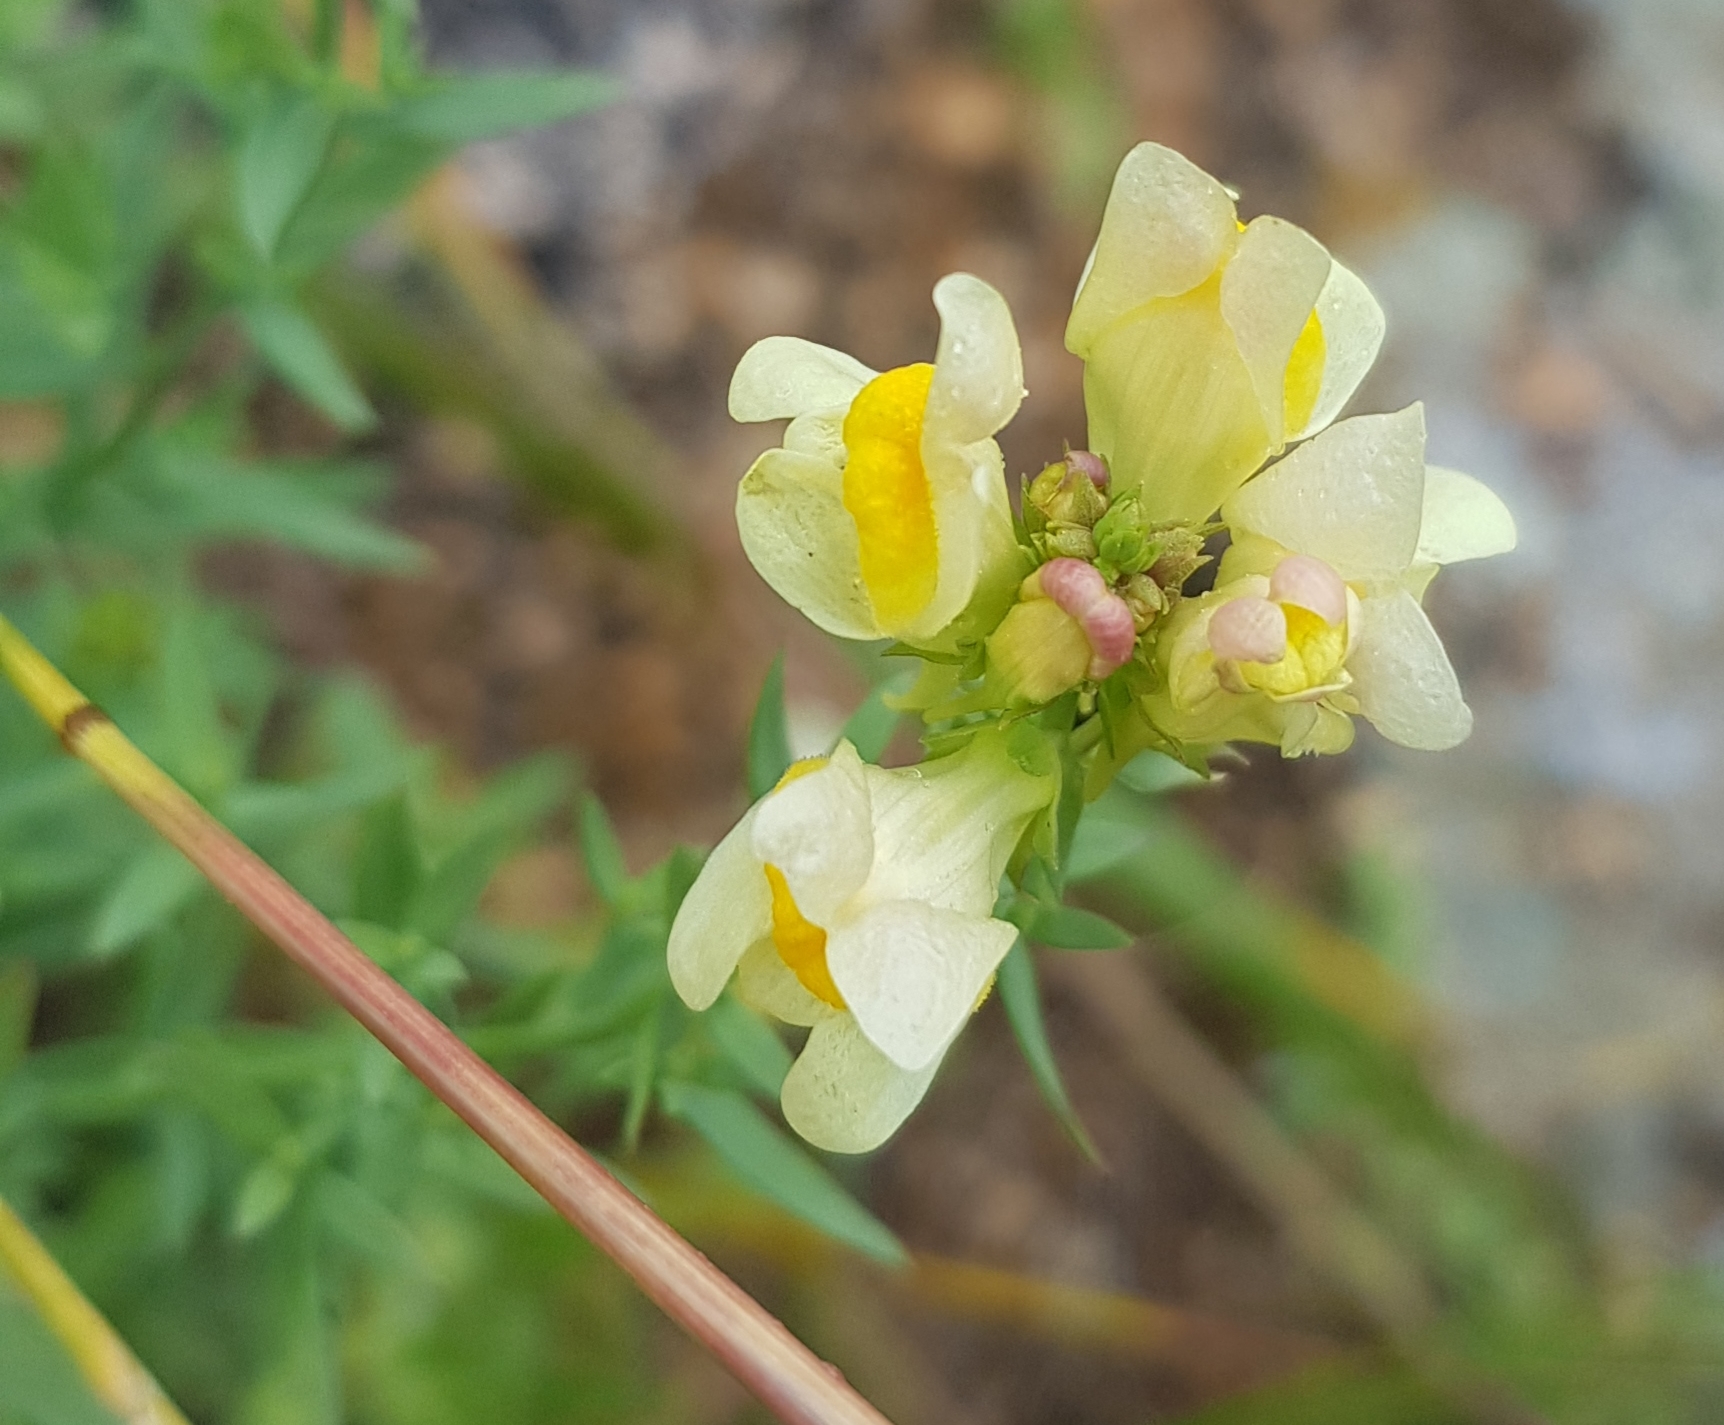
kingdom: Plantae
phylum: Tracheophyta
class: Magnoliopsida
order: Lamiales
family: Plantaginaceae
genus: Linaria
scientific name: Linaria buriatica
